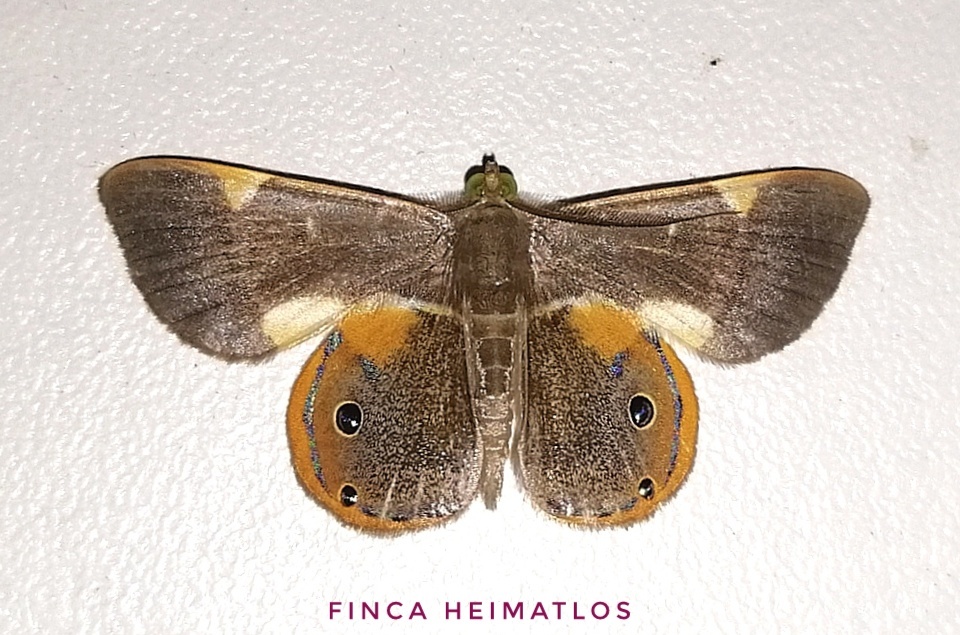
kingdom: Animalia
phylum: Arthropoda
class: Insecta
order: Lepidoptera
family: Geometridae
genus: Opisthoxia
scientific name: Opisthoxia haemon
